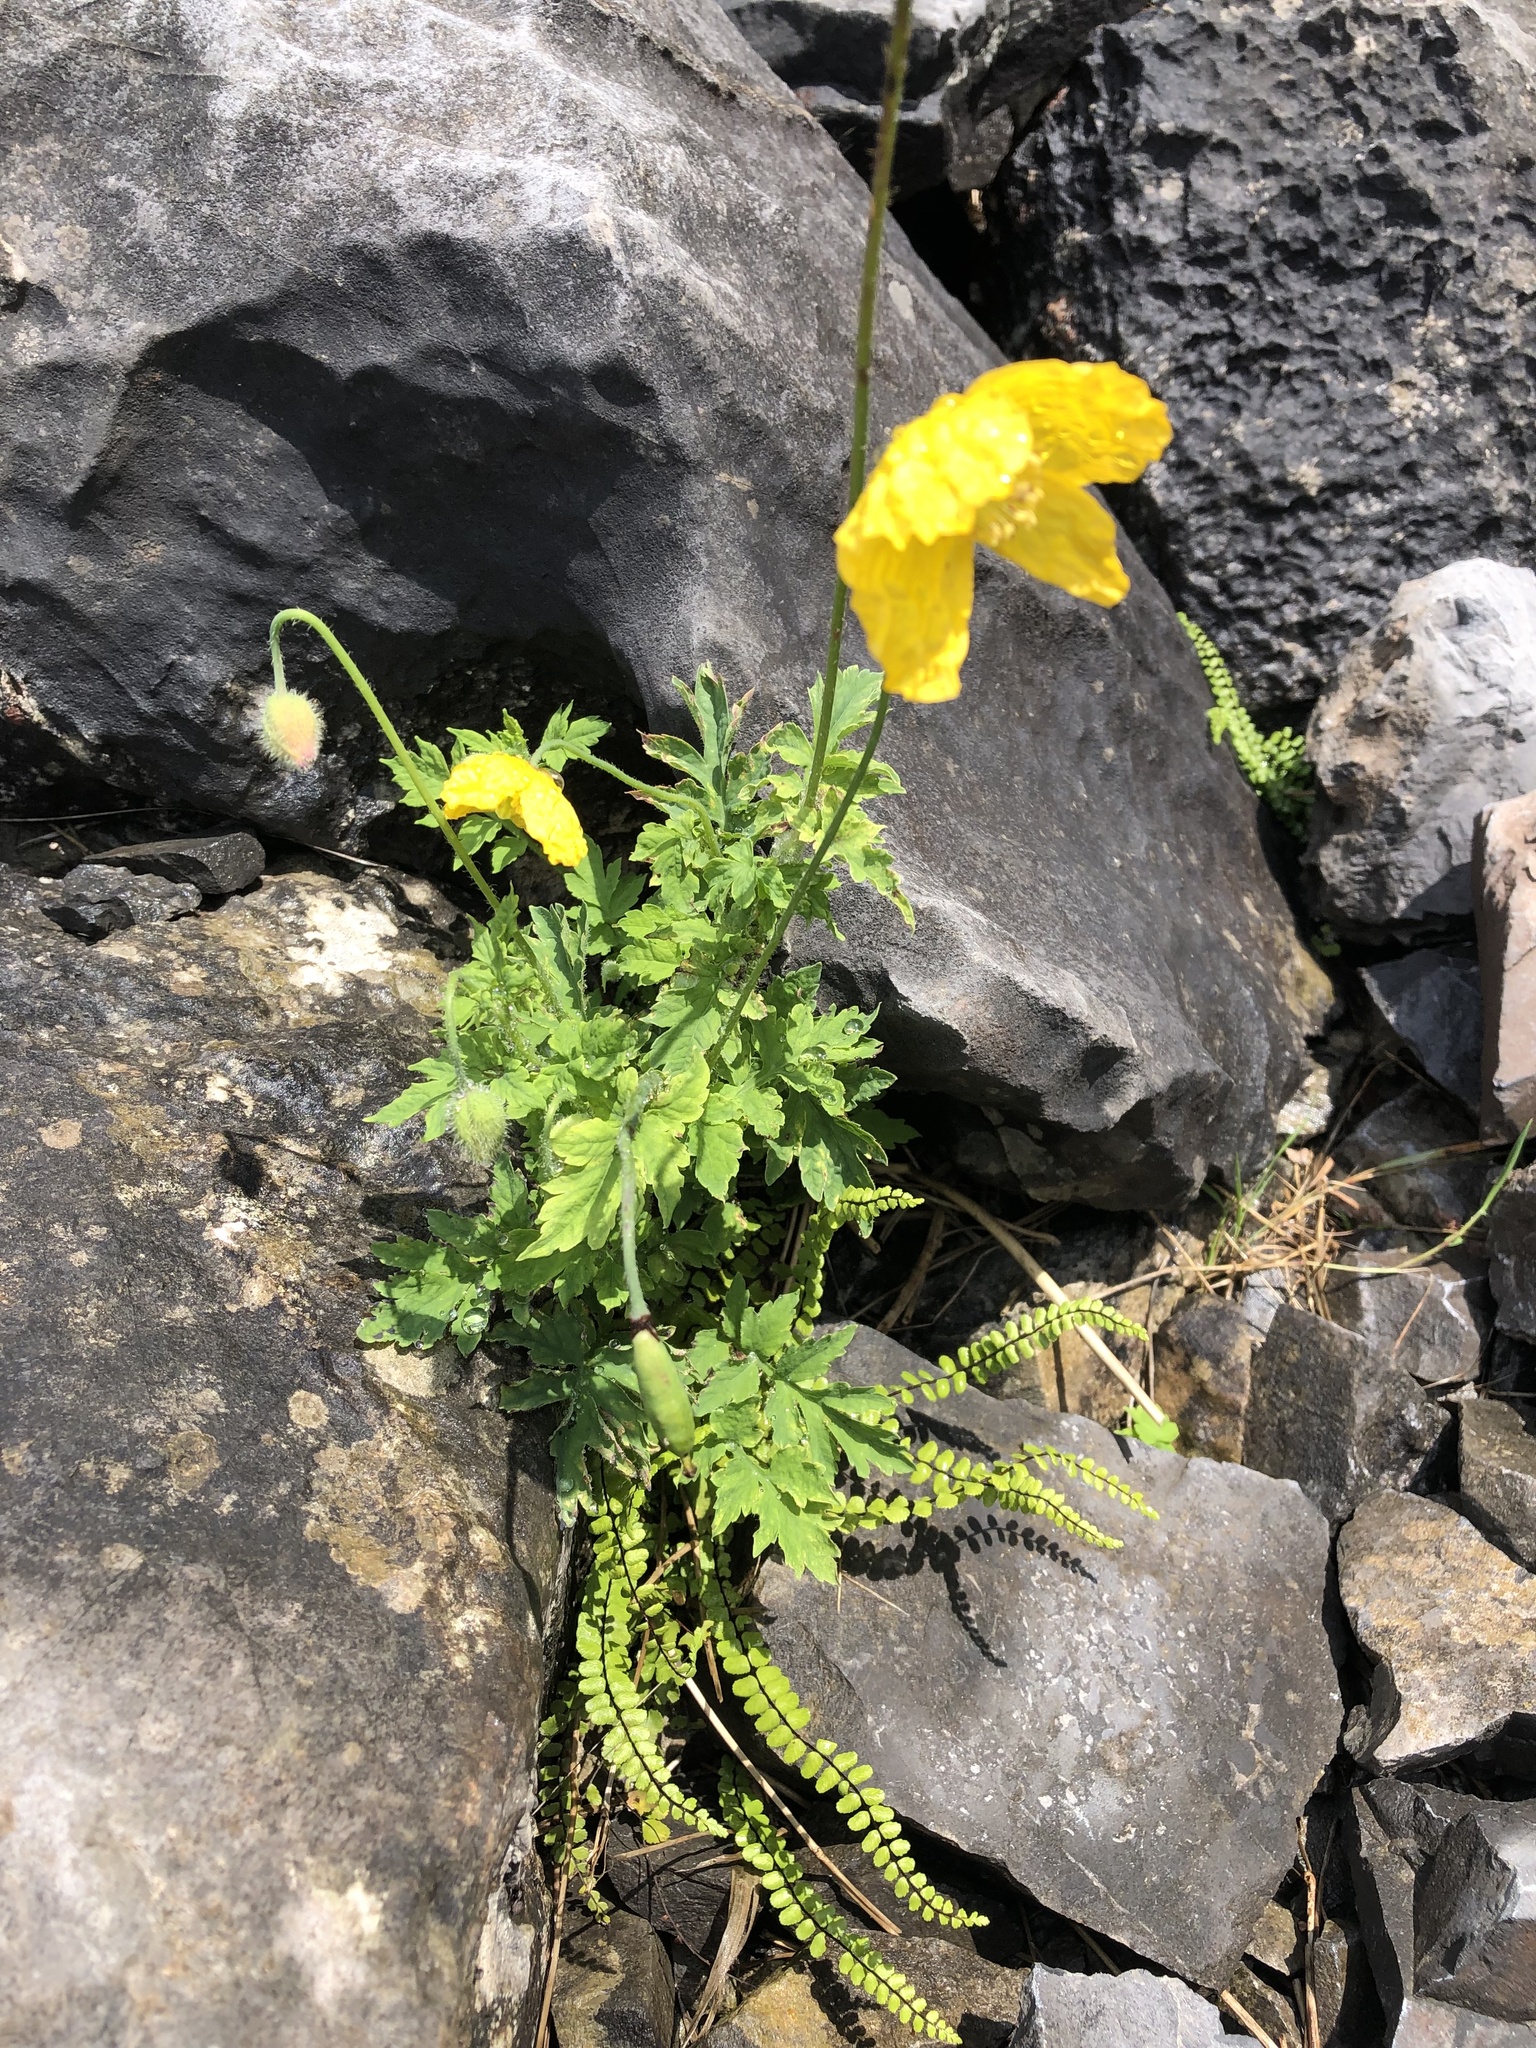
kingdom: Plantae
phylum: Tracheophyta
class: Magnoliopsida
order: Ranunculales
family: Papaveraceae
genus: Papaver
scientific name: Papaver cambricum
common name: Poppy
